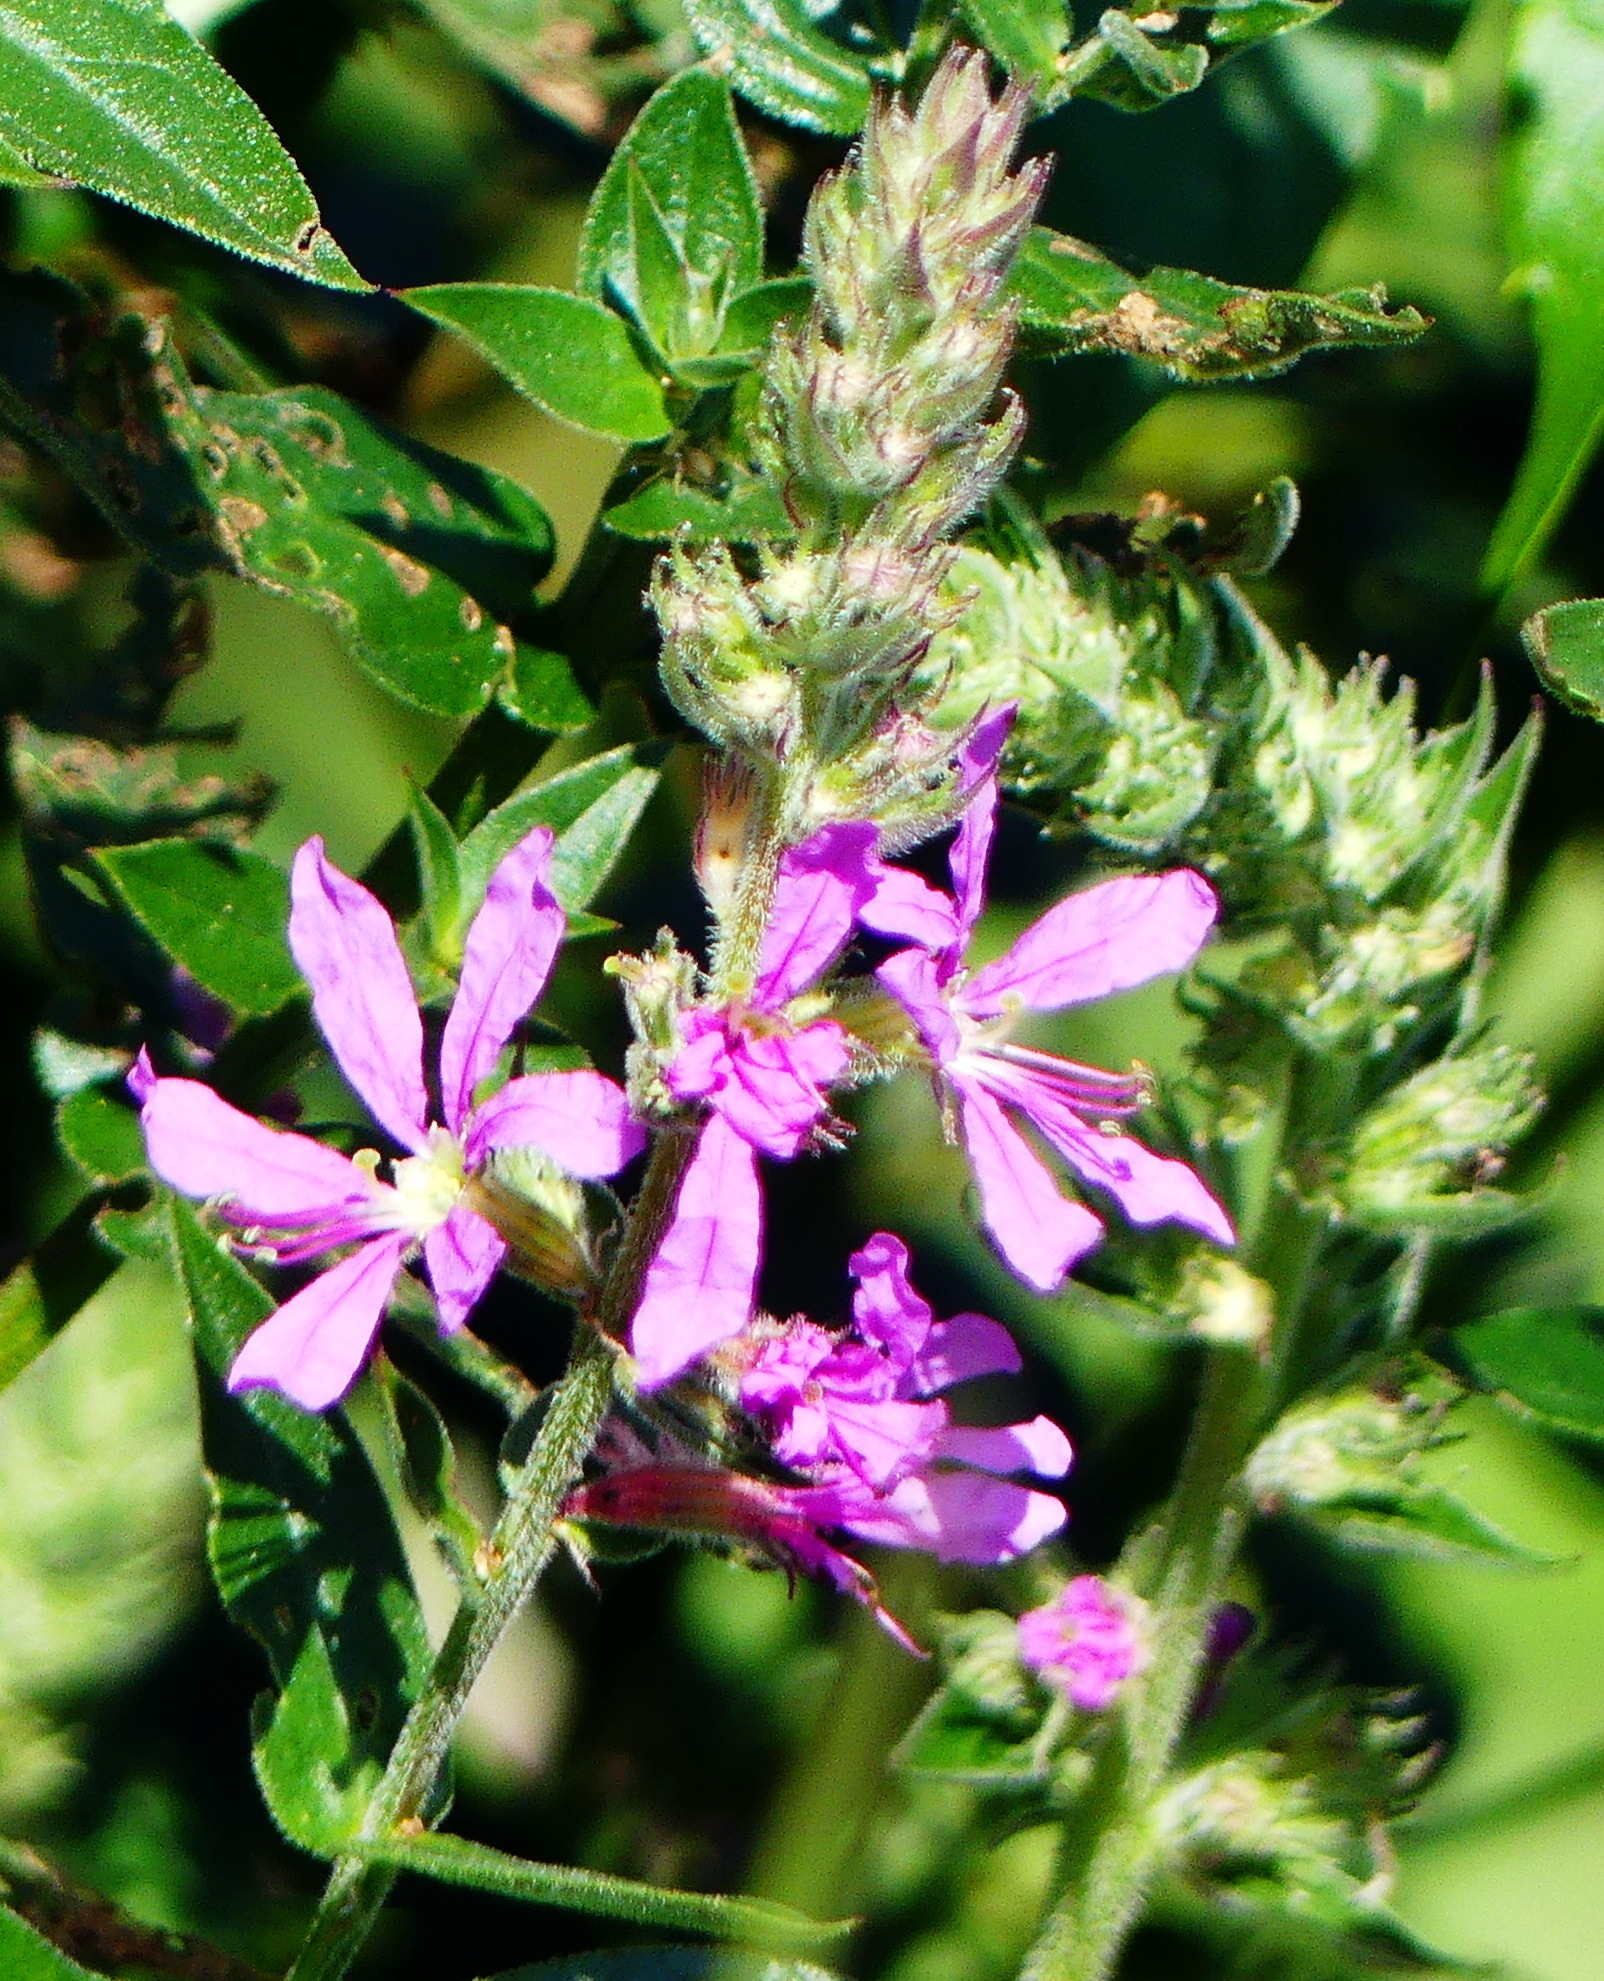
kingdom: Plantae
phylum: Tracheophyta
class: Magnoliopsida
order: Myrtales
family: Lythraceae
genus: Lythrum
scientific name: Lythrum salicaria
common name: Purple loosestrife
